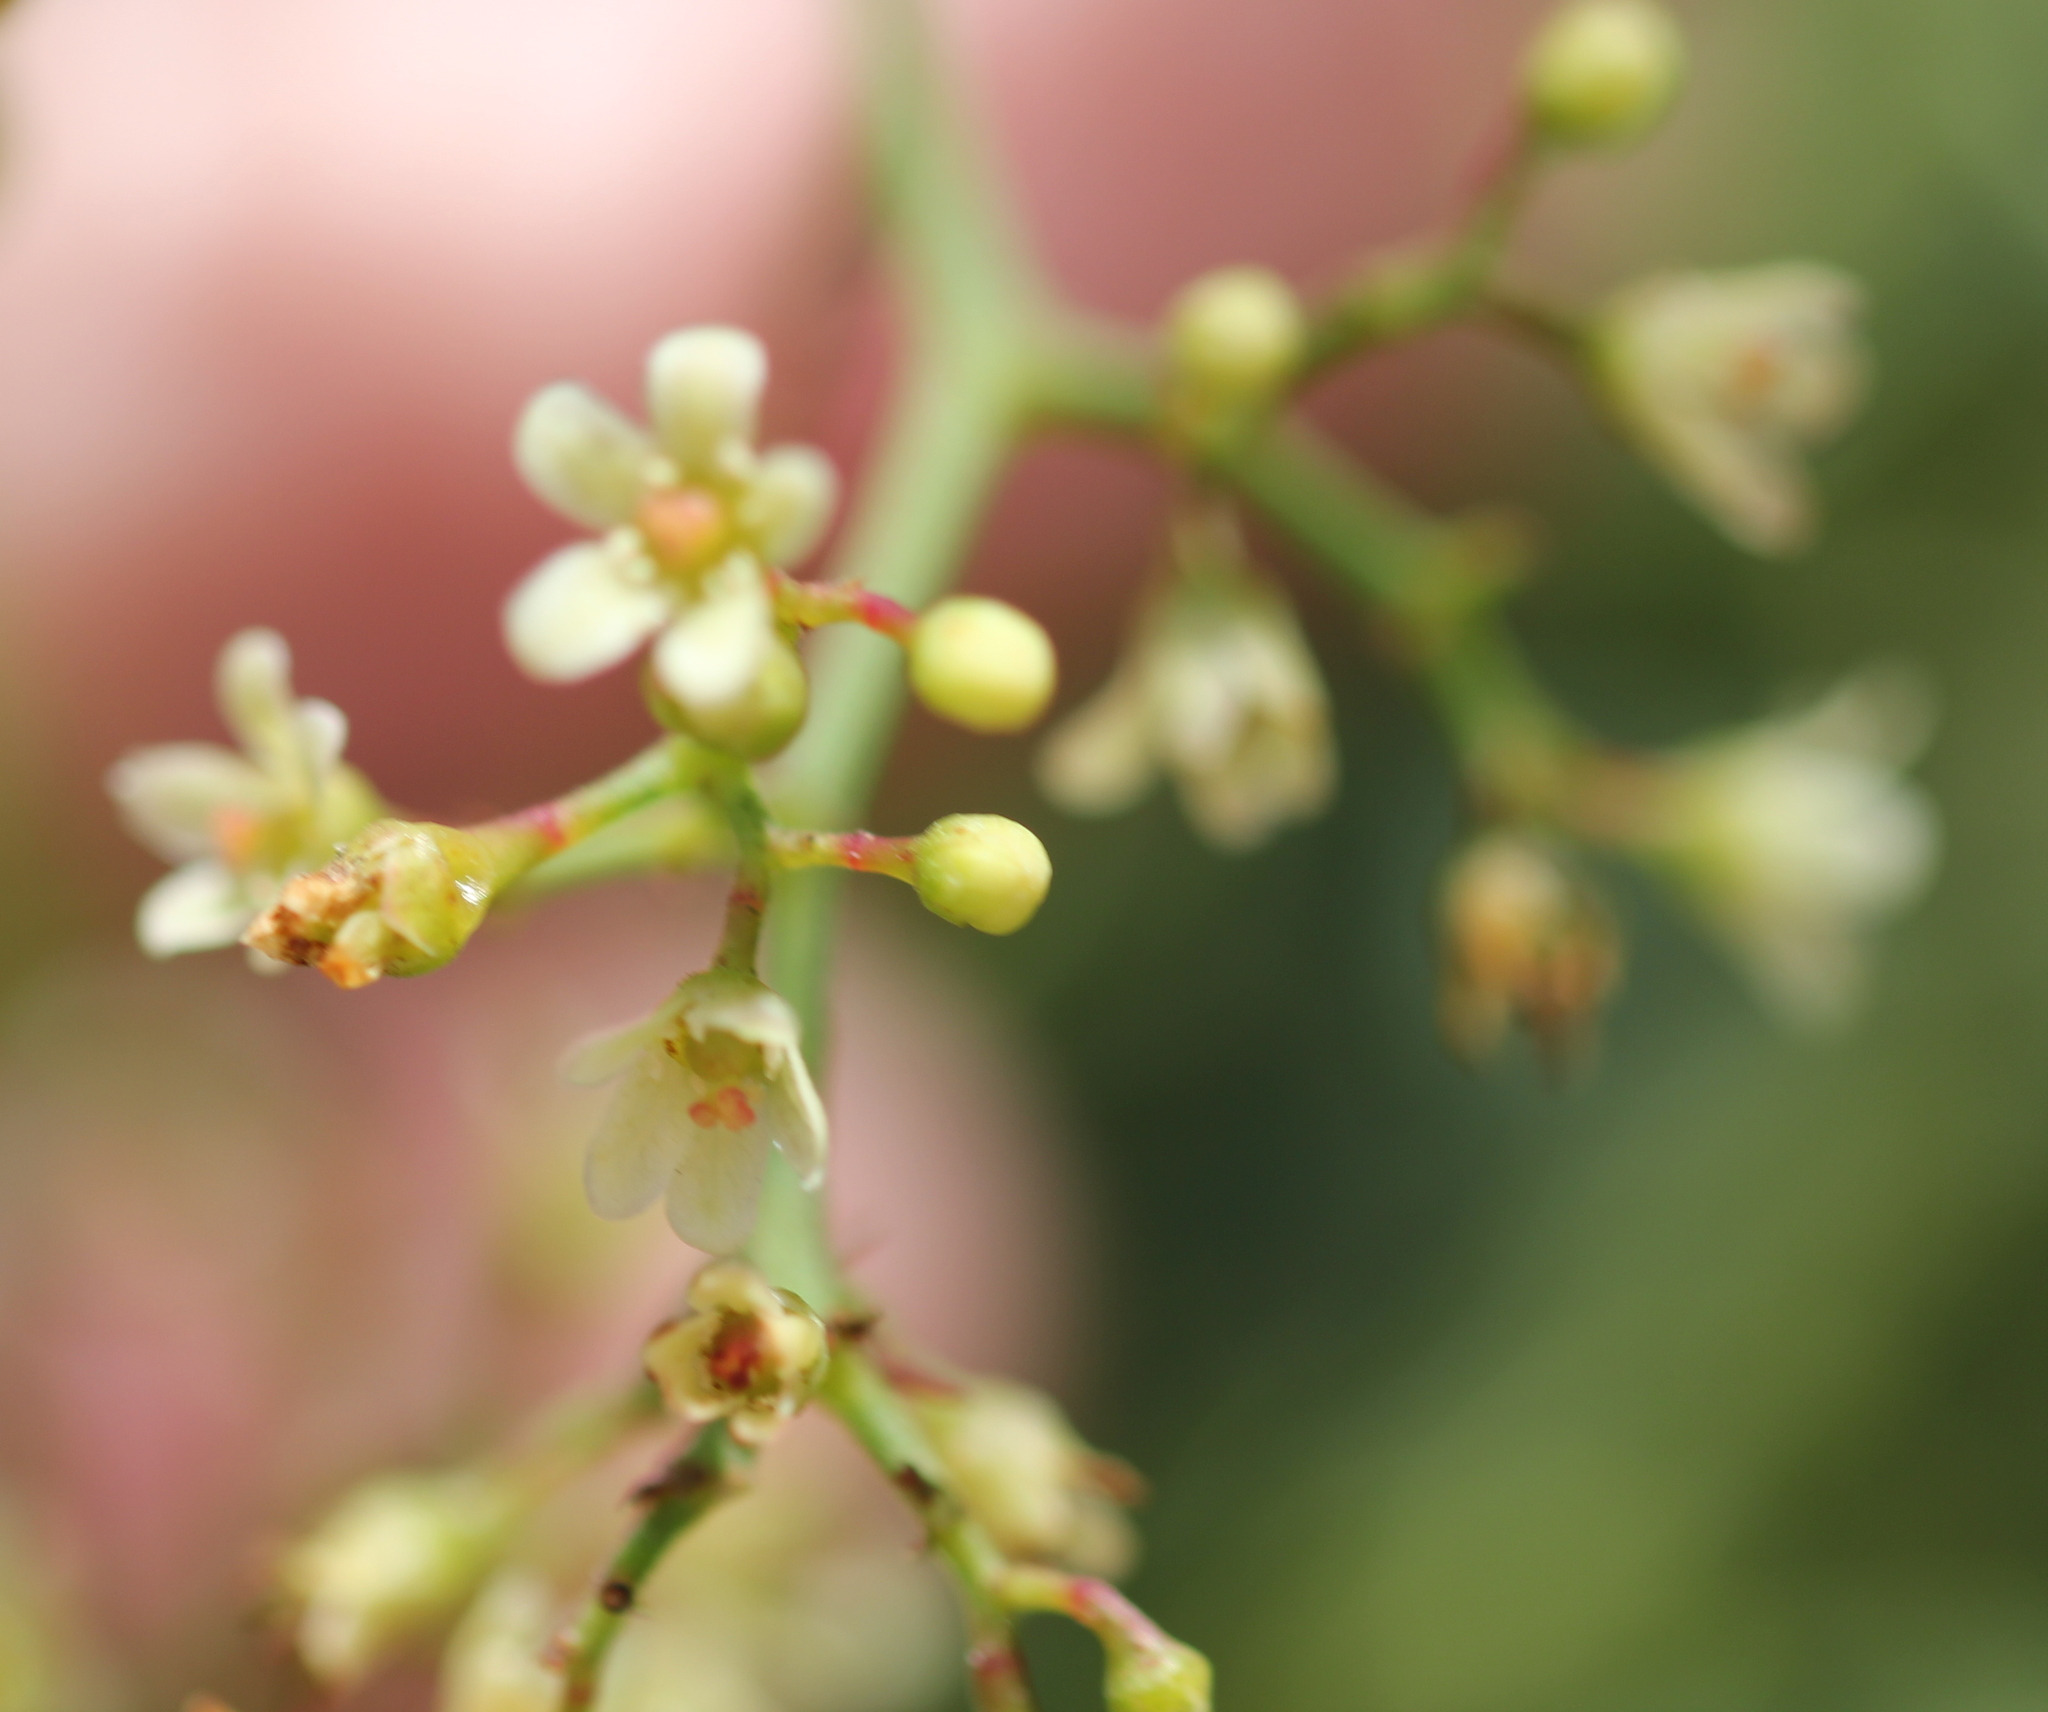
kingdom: Plantae
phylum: Tracheophyta
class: Magnoliopsida
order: Sapindales
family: Anacardiaceae
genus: Schinus
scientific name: Schinus molle
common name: Peruvian peppertree
